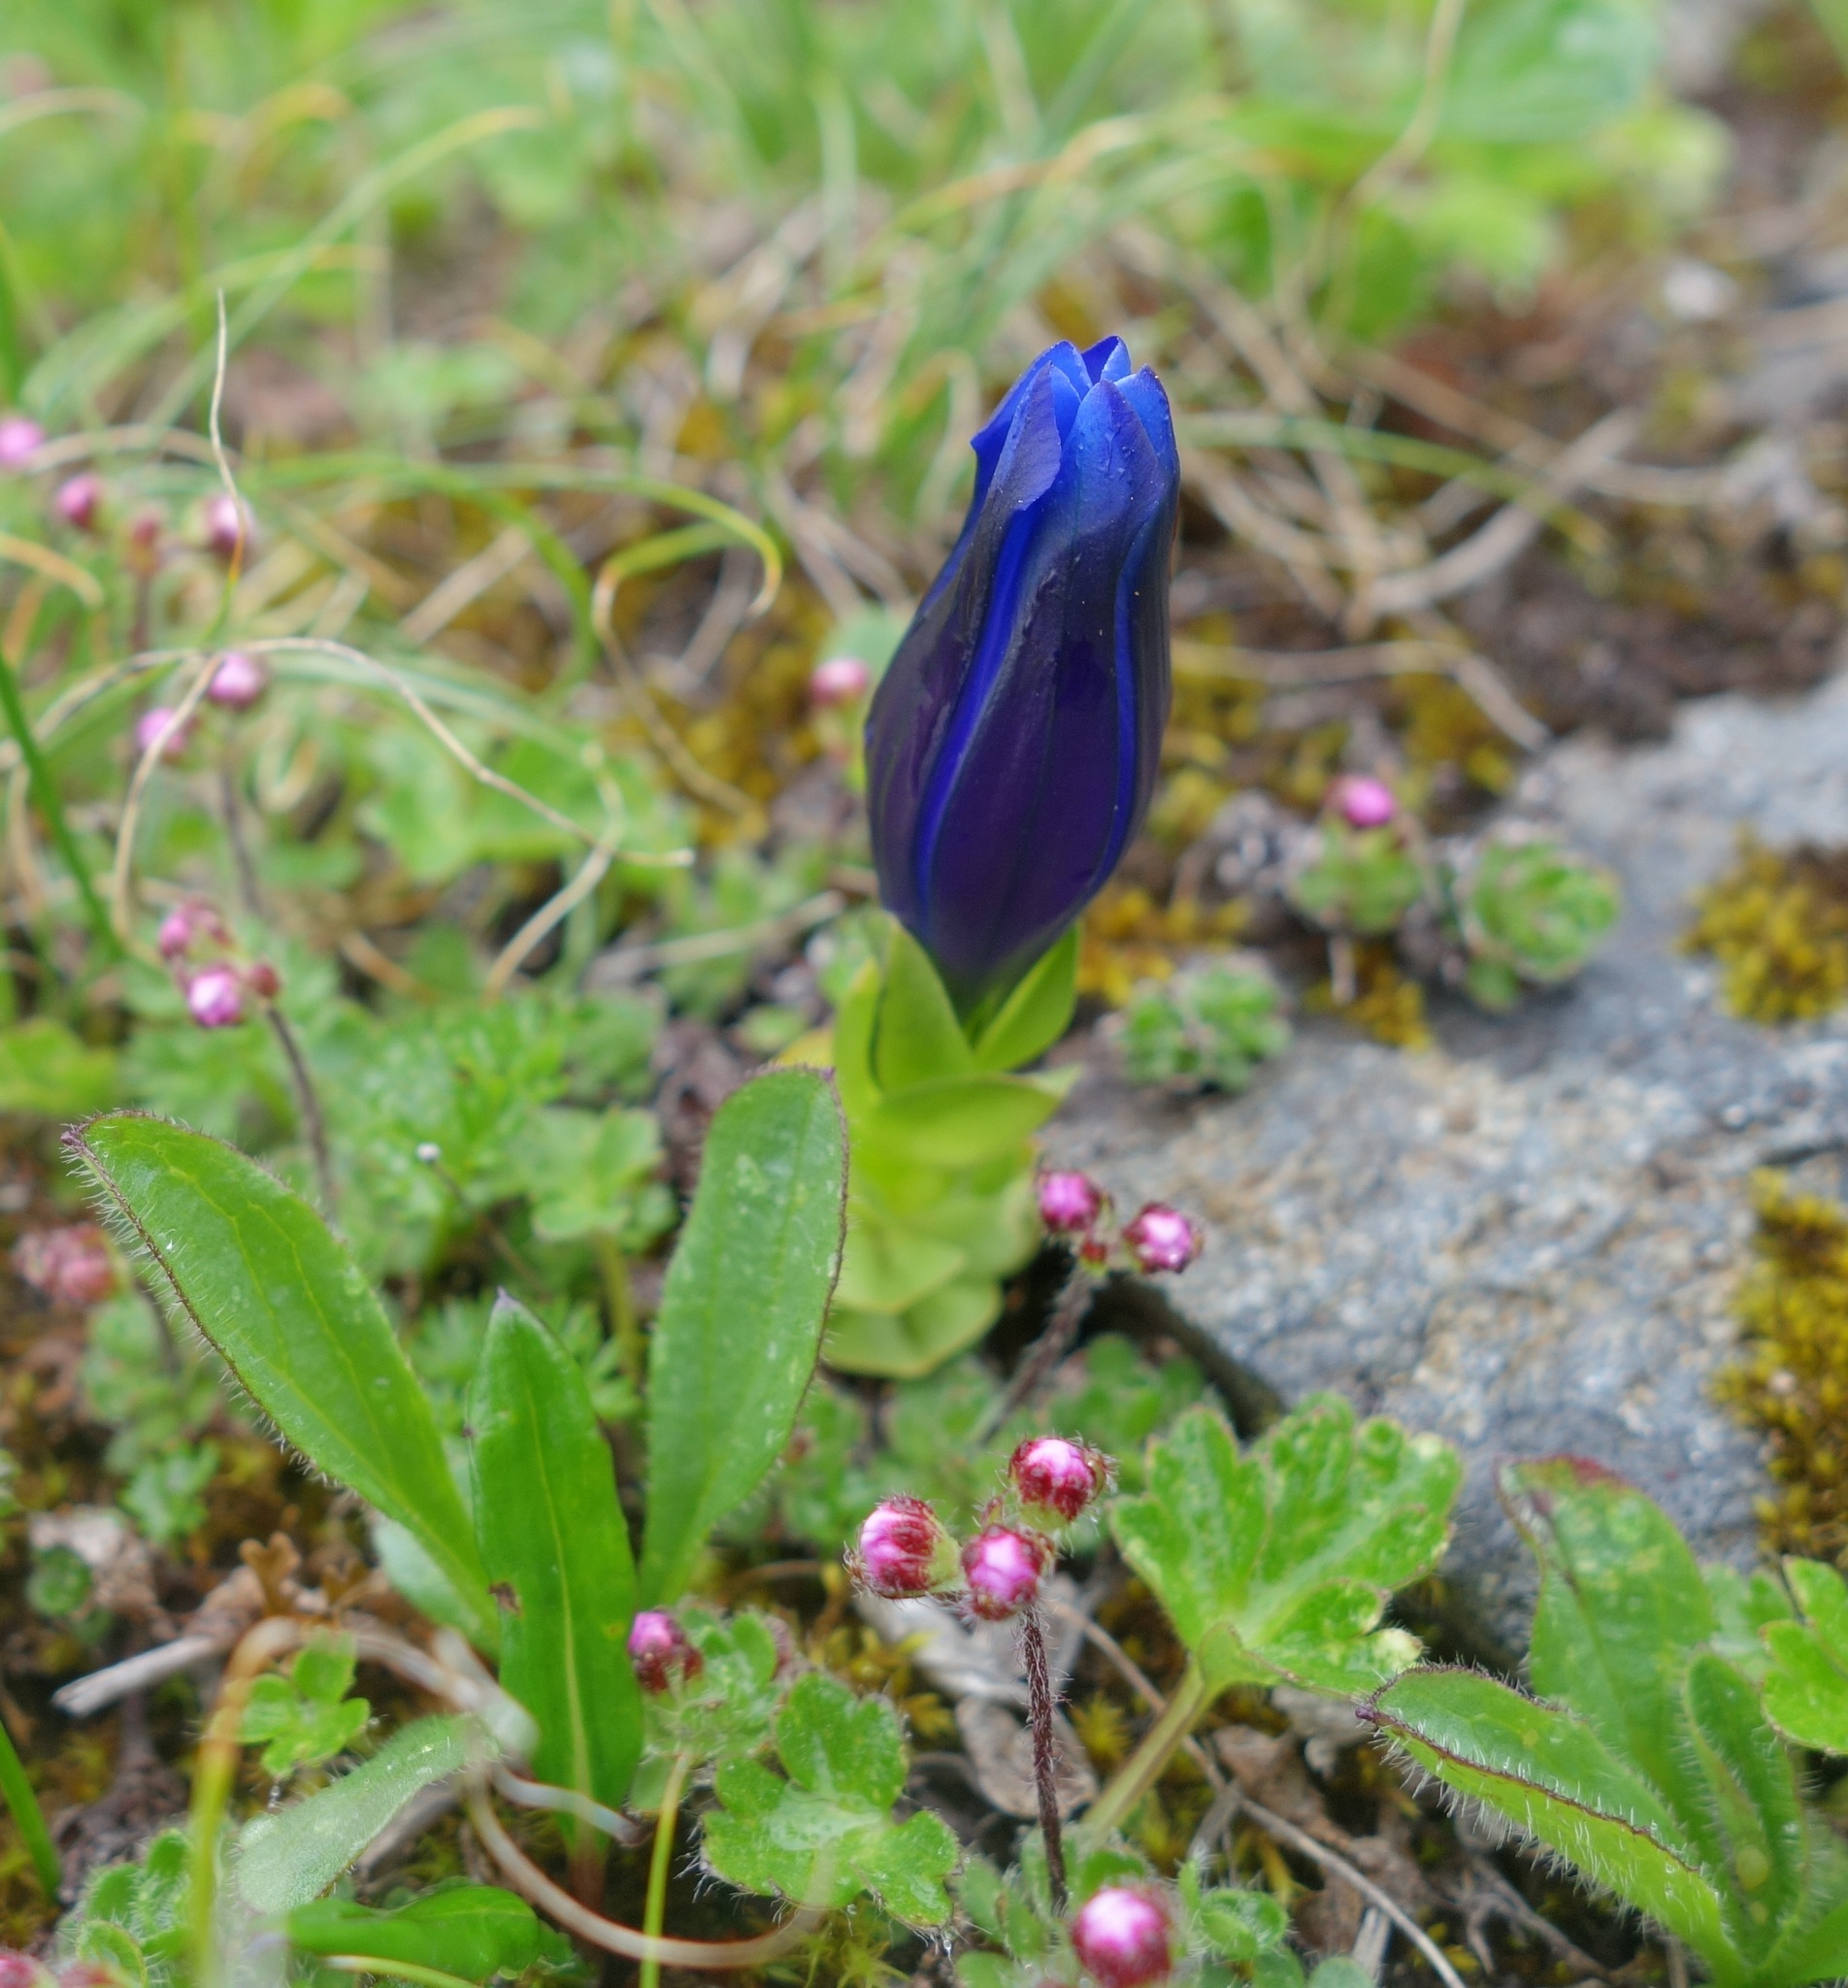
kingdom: Plantae
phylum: Tracheophyta
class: Magnoliopsida
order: Gentianales
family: Gentianaceae
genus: Gentiana
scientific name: Gentiana phyllocalyx
